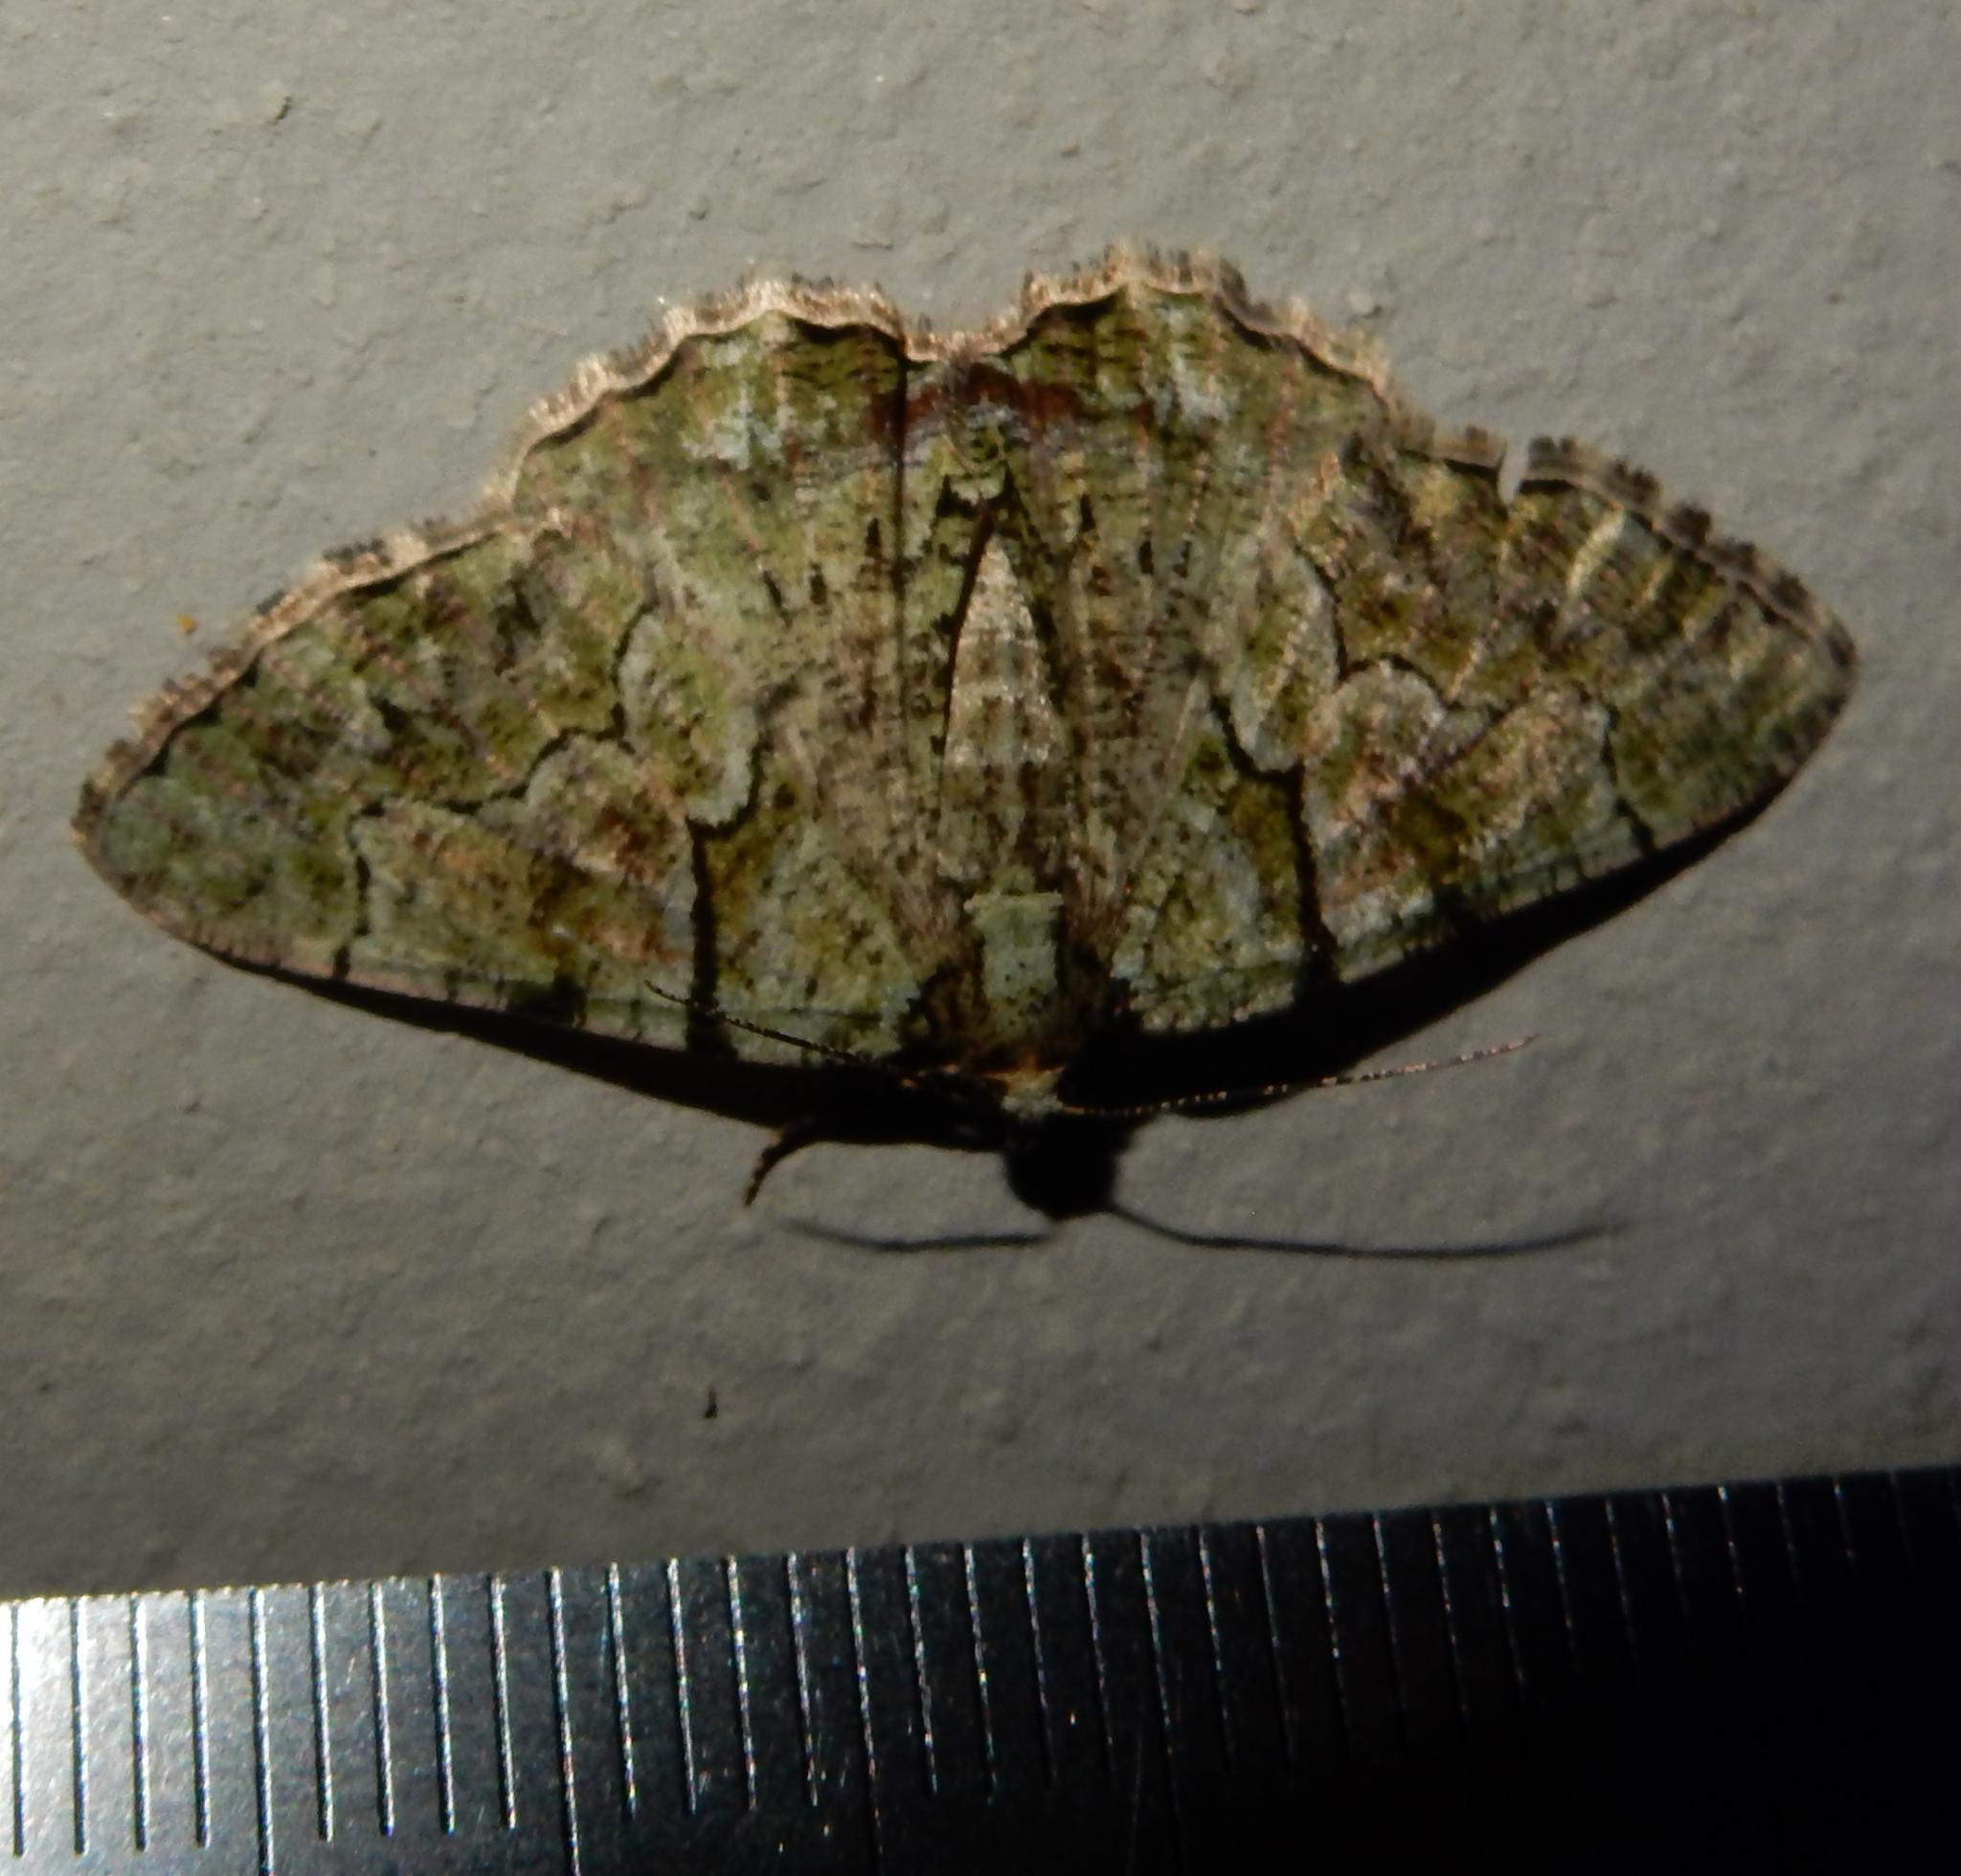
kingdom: Animalia
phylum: Arthropoda
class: Insecta
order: Lepidoptera
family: Geometridae
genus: Xylopteryx
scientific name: Xylopteryx prasinaria
